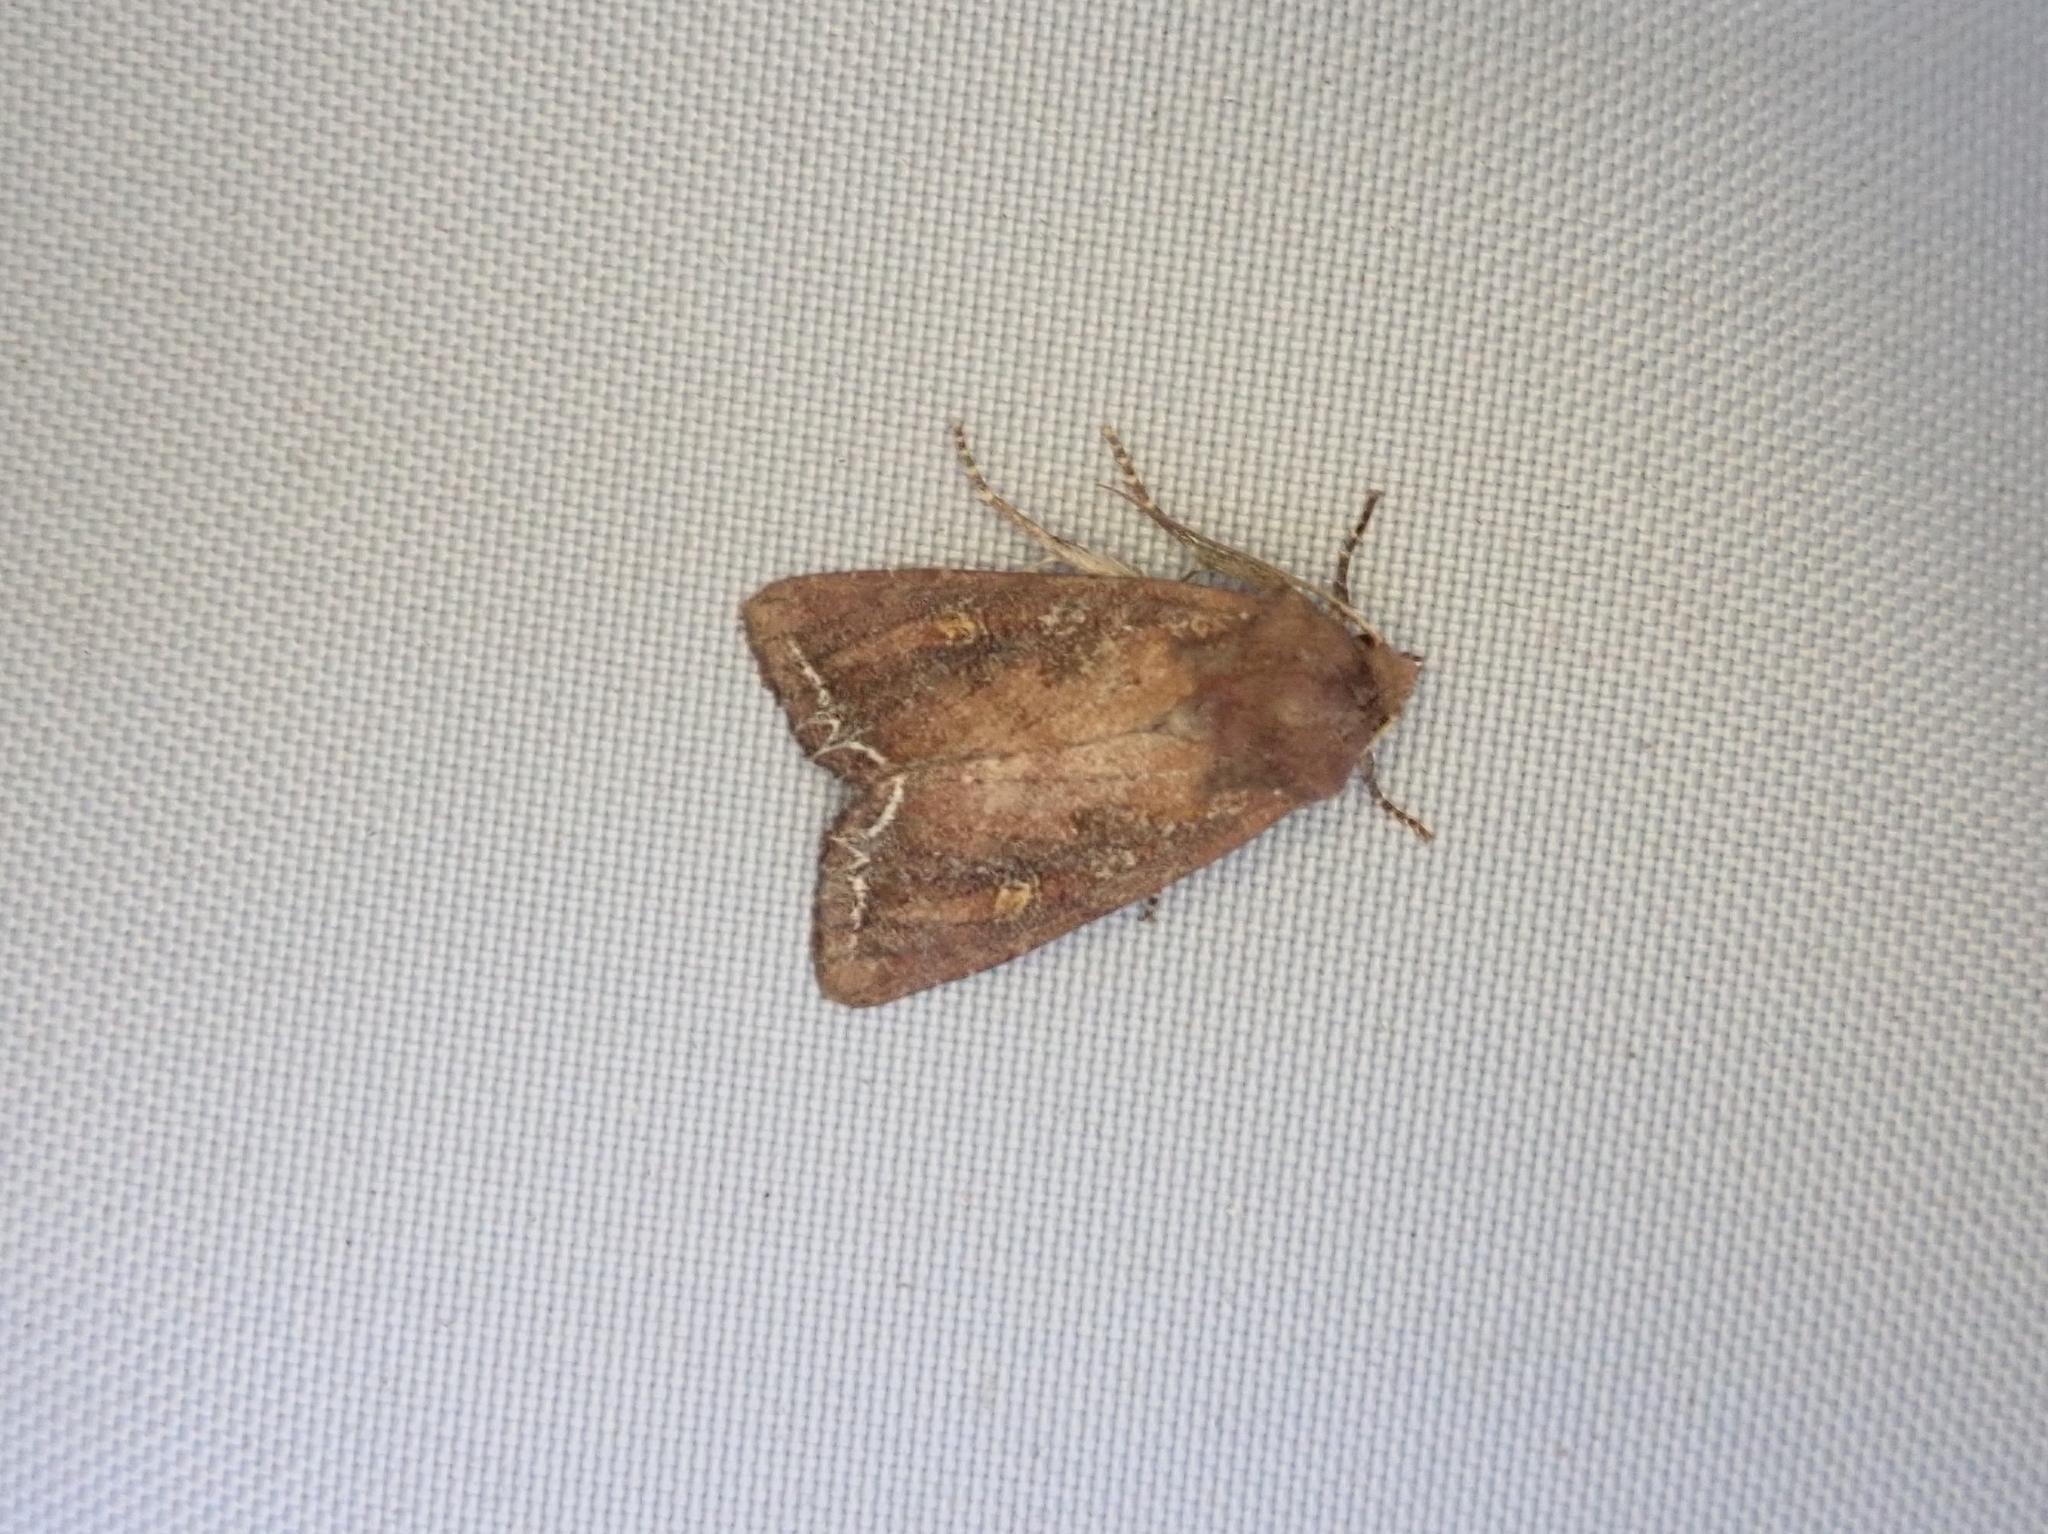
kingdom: Animalia
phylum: Arthropoda
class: Insecta
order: Lepidoptera
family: Noctuidae
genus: Lacanobia
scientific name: Lacanobia oleracea
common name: Bright-line brown-eye
